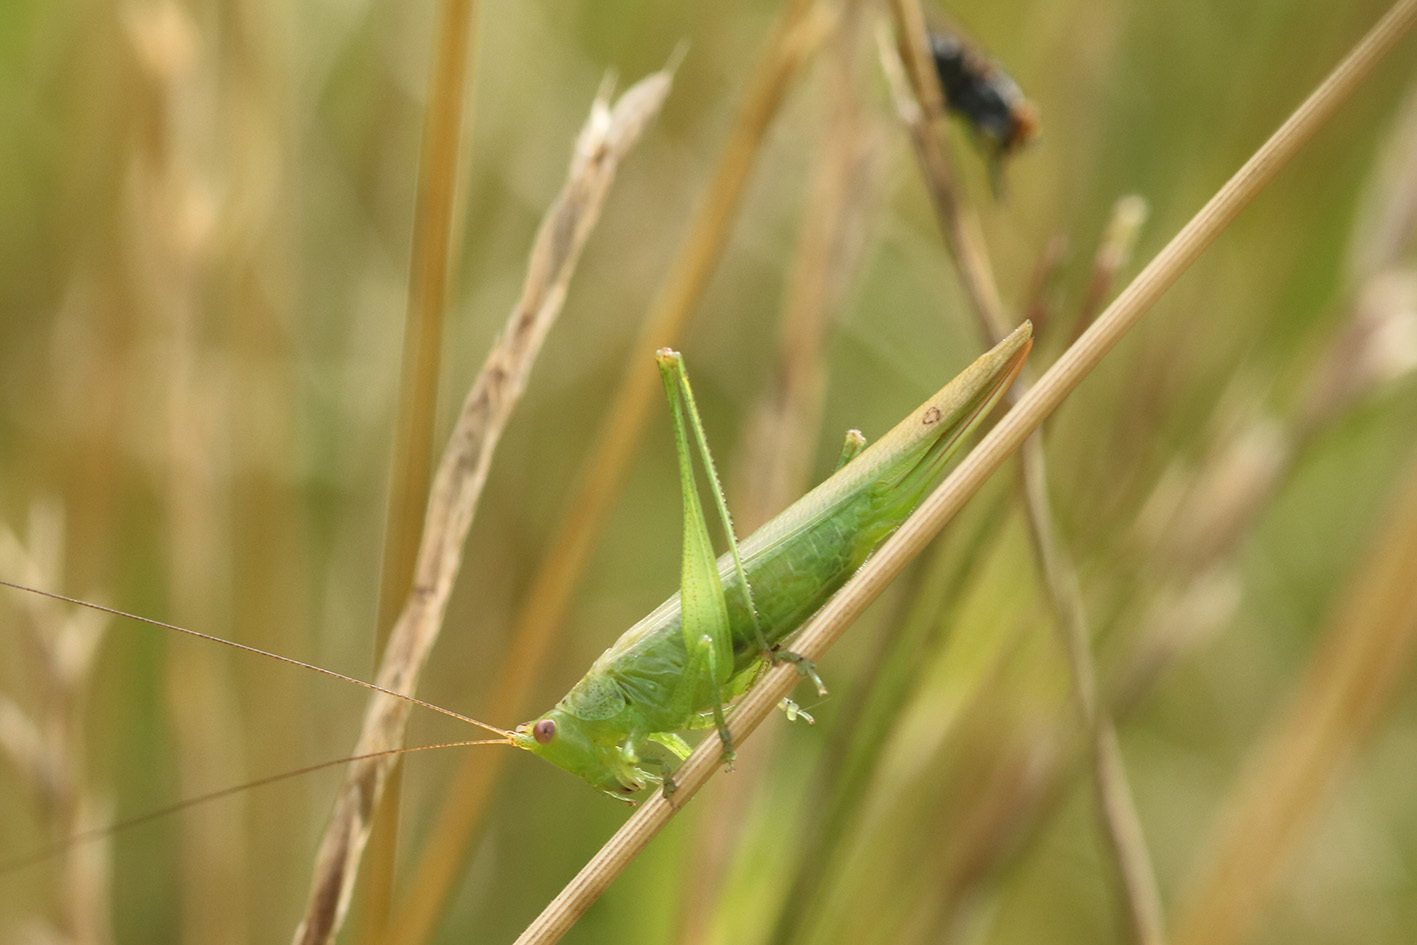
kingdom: Animalia
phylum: Arthropoda
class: Insecta
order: Orthoptera
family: Tettigoniidae
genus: Conocephalus
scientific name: Conocephalus longipes
